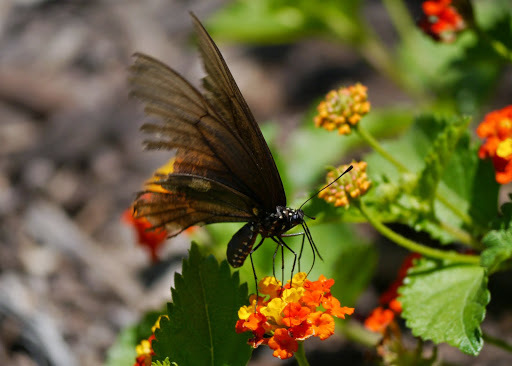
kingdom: Animalia
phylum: Arthropoda
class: Insecta
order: Lepidoptera
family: Papilionidae
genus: Battus
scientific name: Battus philenor
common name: Pipevine swallowtail
